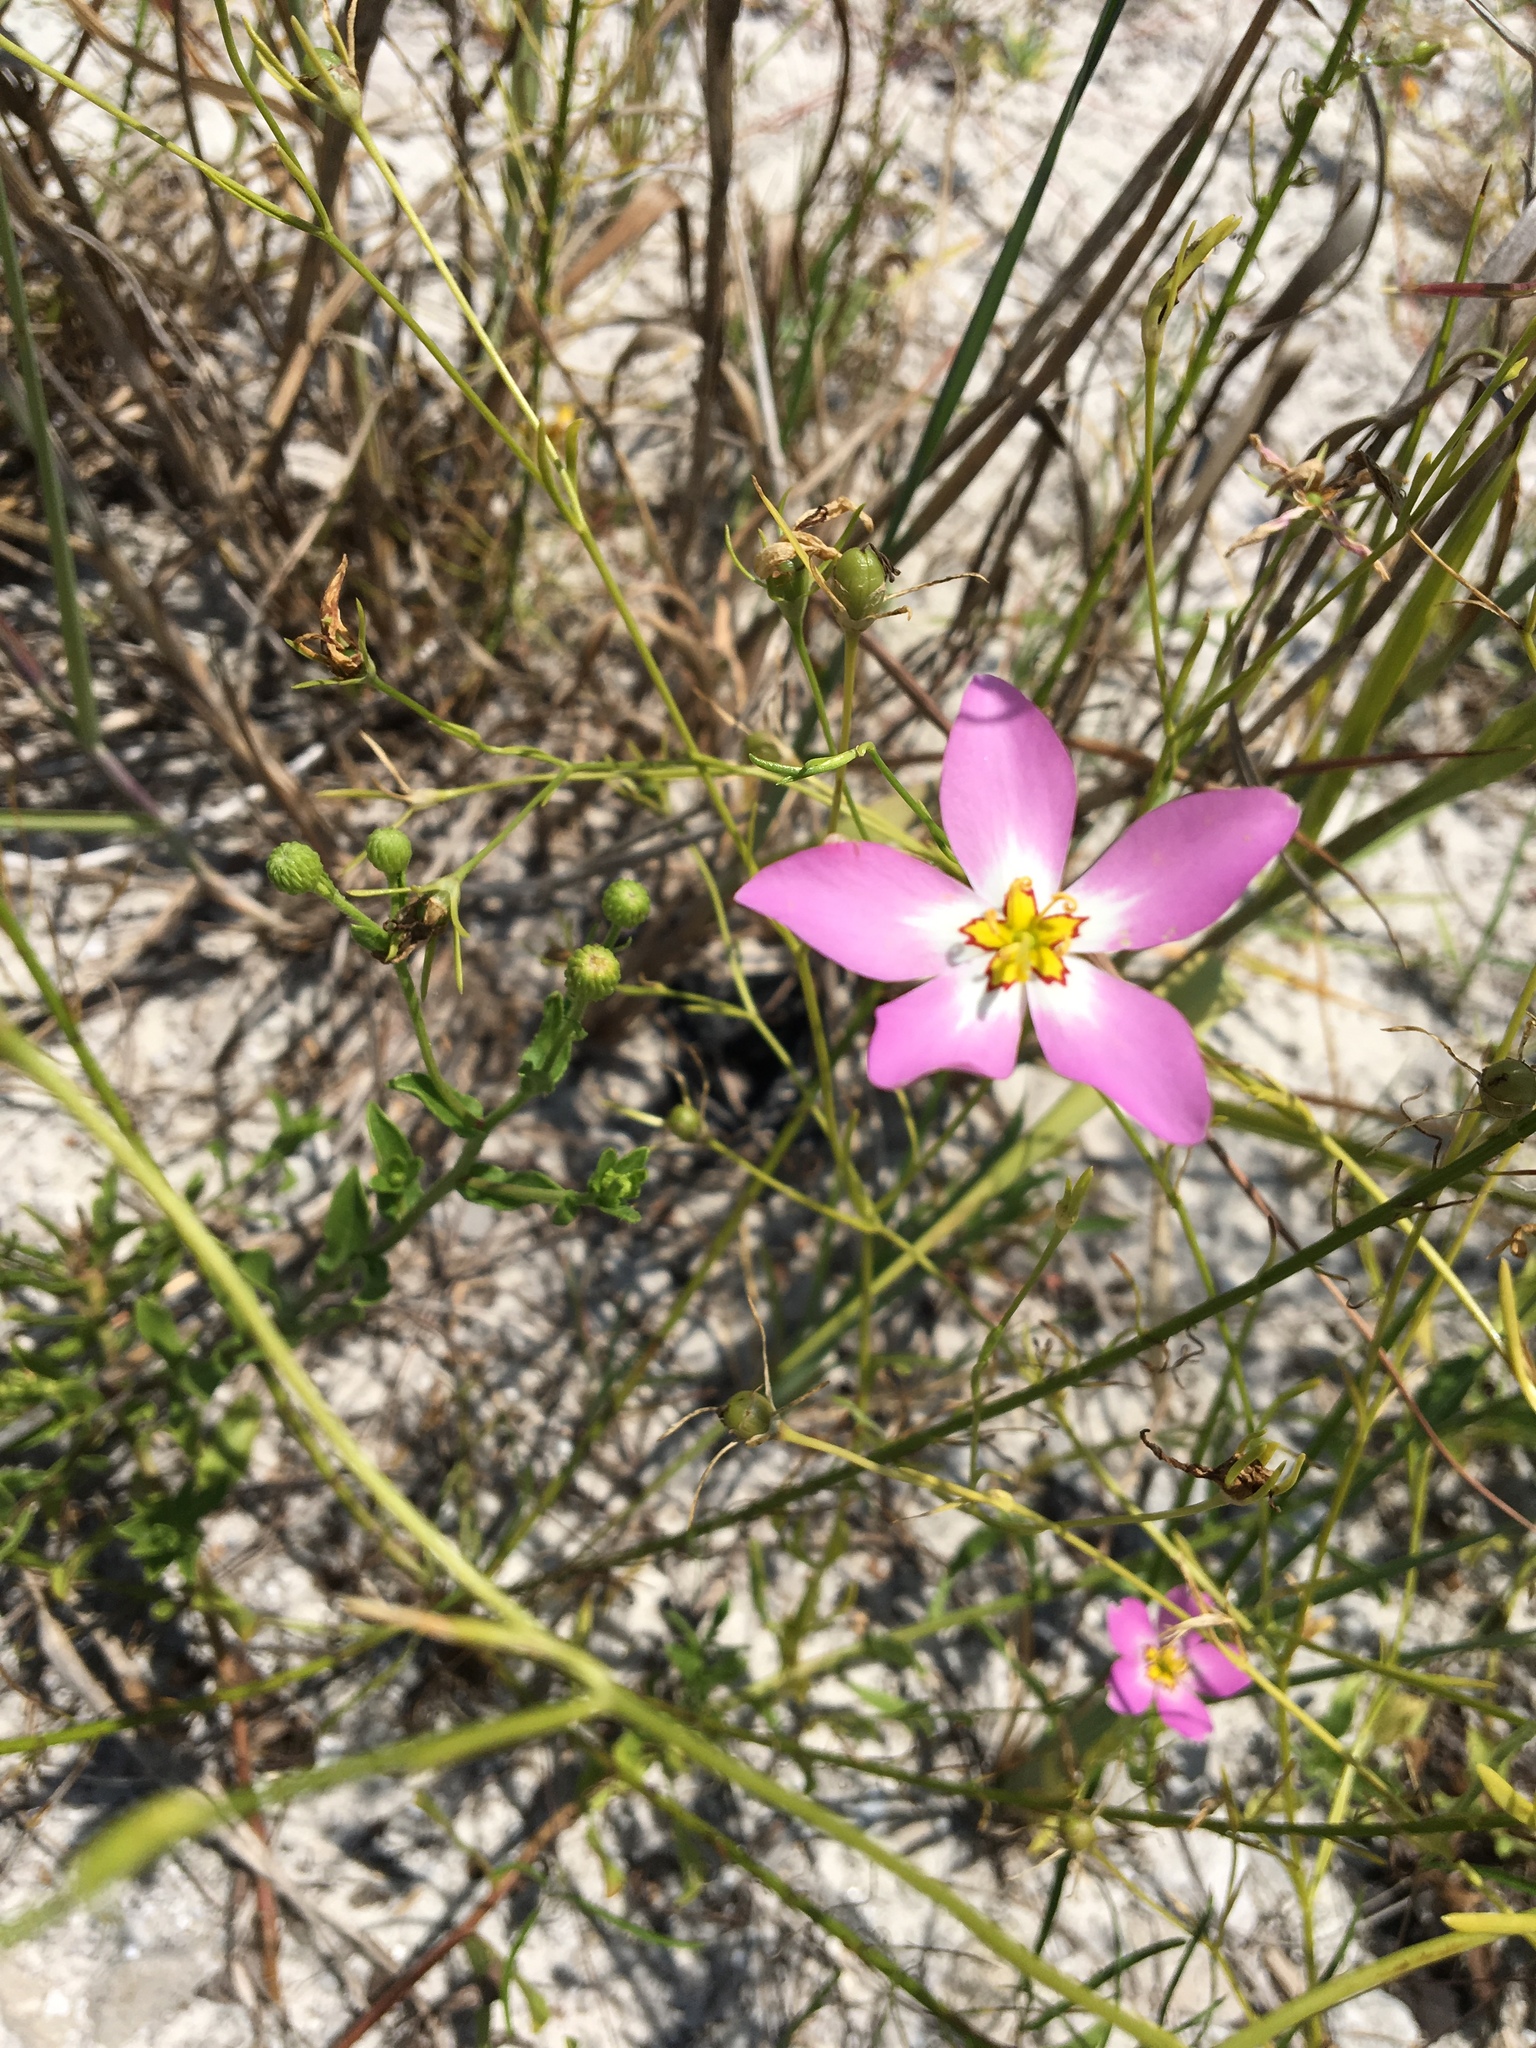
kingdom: Plantae
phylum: Tracheophyta
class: Magnoliopsida
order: Gentianales
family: Gentianaceae
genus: Sabatia
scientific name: Sabatia stellaris
